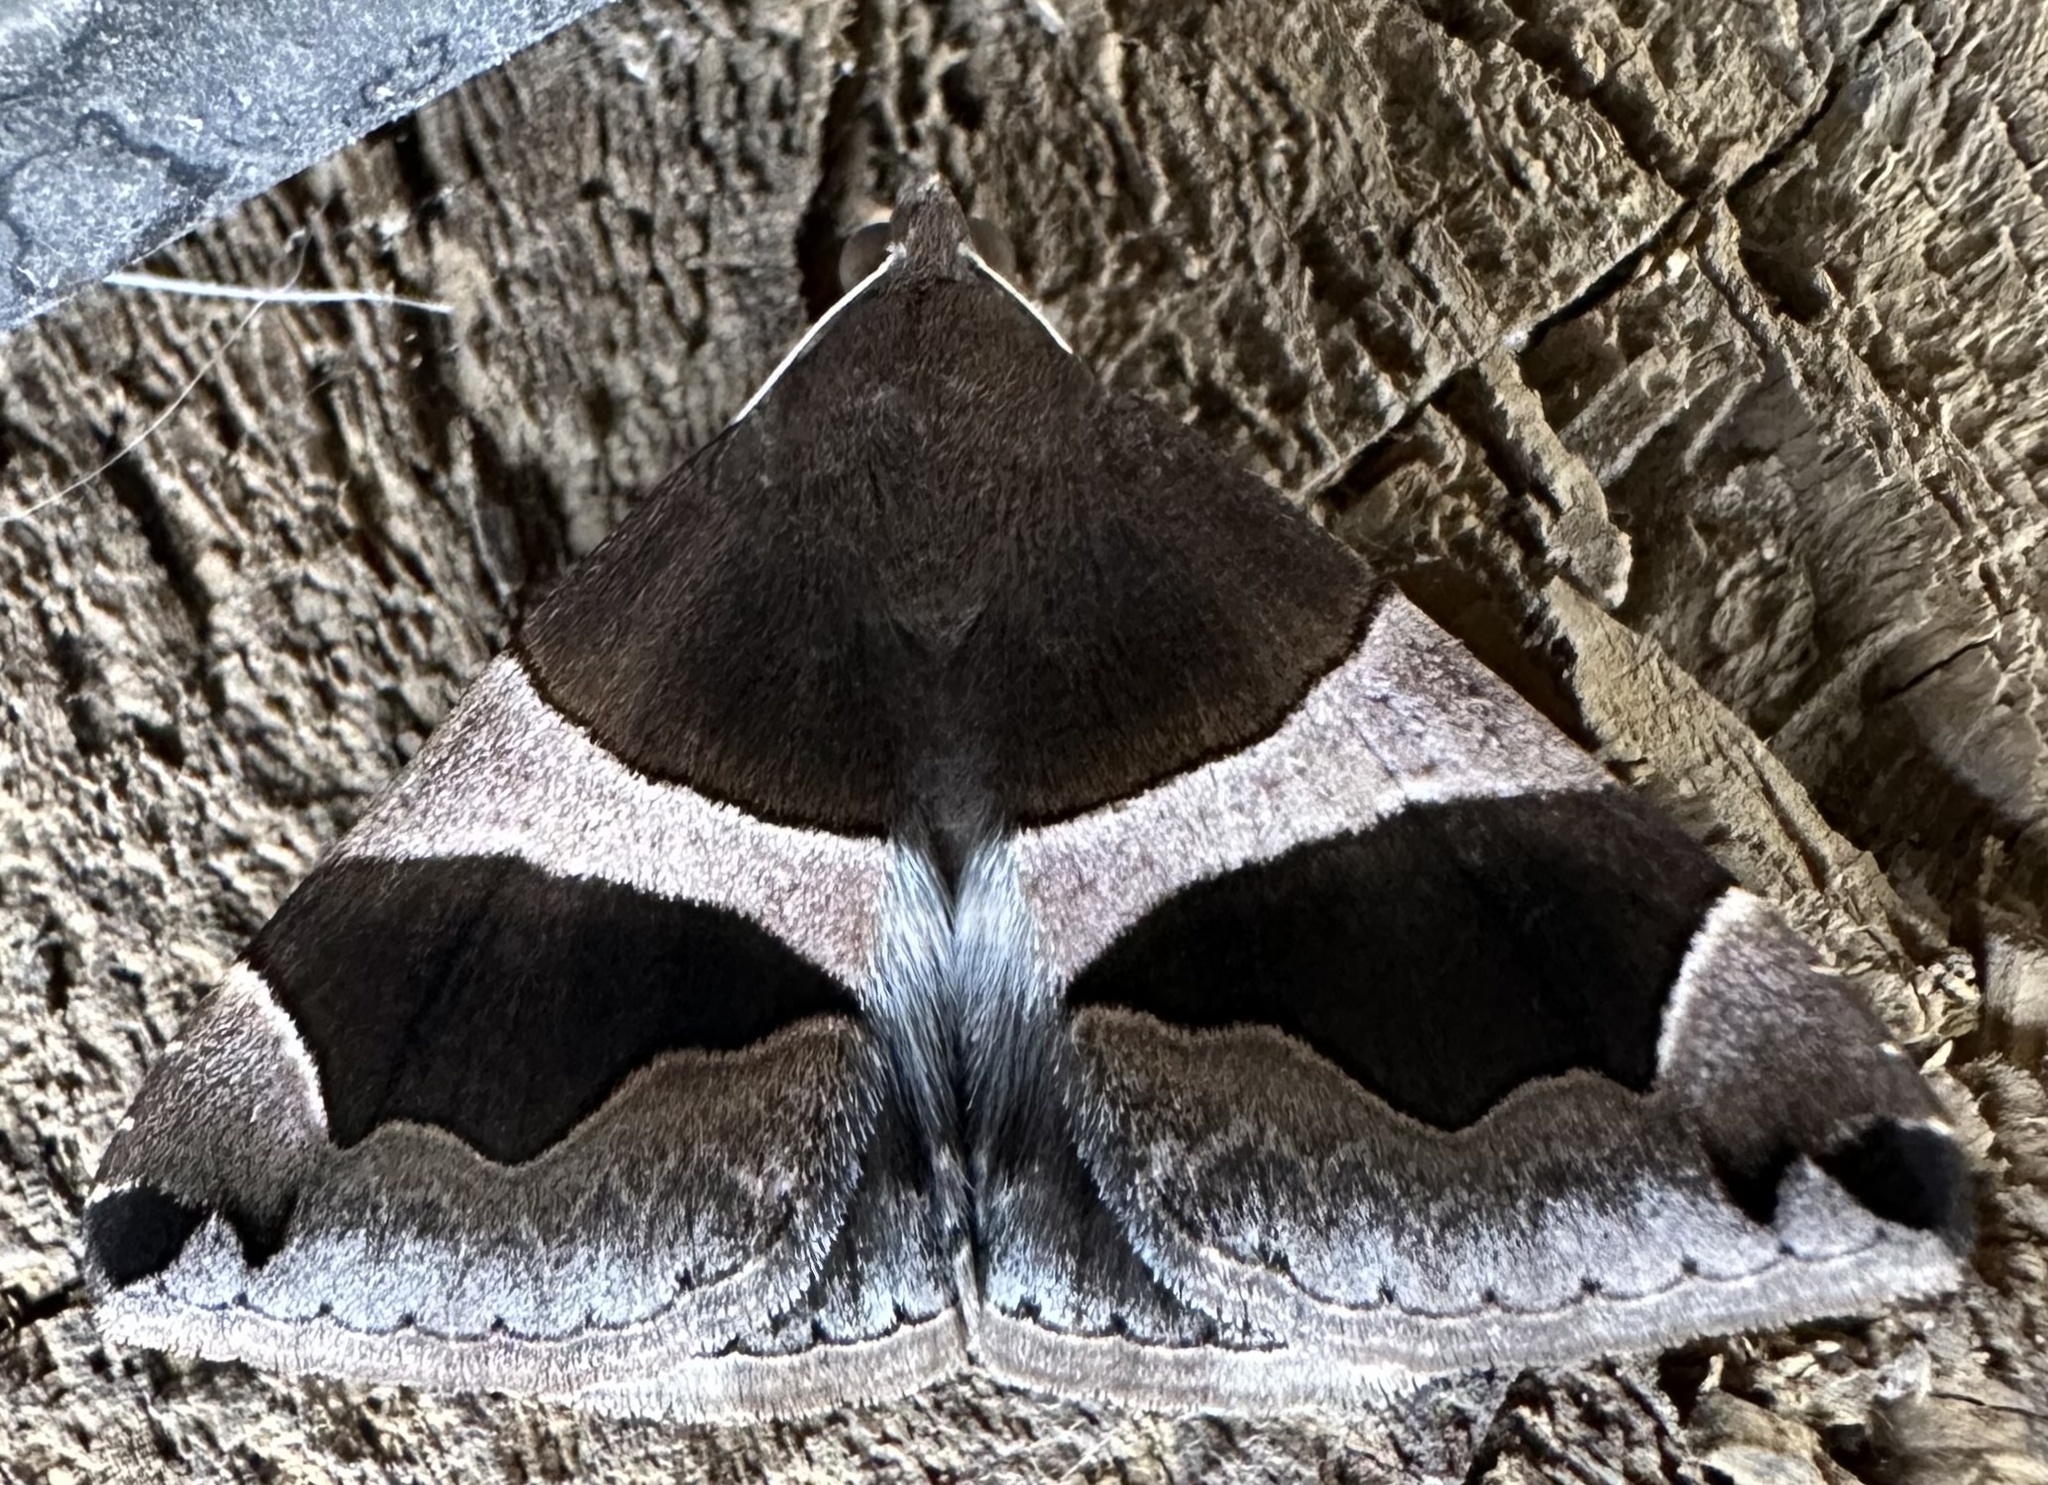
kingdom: Animalia
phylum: Arthropoda
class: Insecta
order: Lepidoptera
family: Erebidae
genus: Dysgonia
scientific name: Dysgonia torrida
